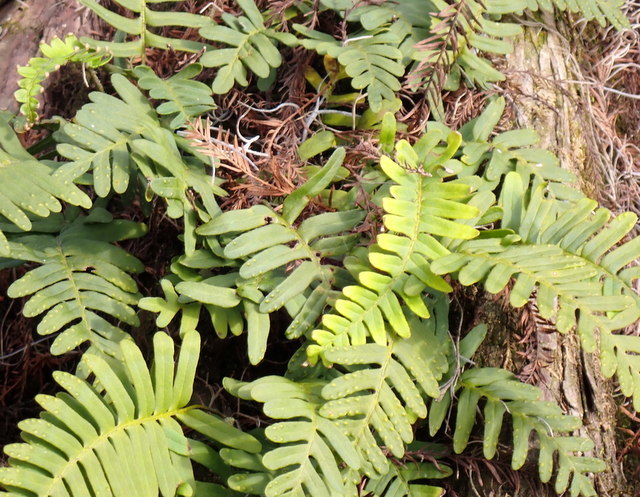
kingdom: Plantae
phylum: Tracheophyta
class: Polypodiopsida
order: Polypodiales
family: Polypodiaceae
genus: Pleopeltis
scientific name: Pleopeltis michauxiana
